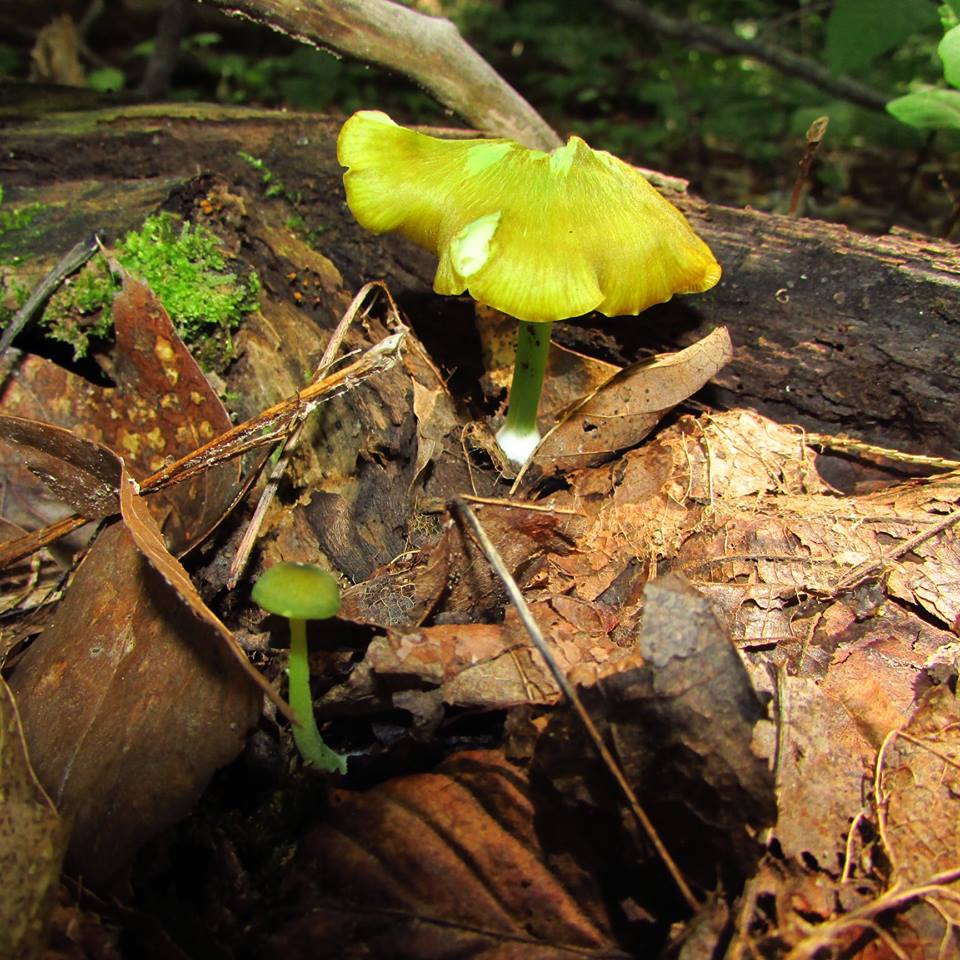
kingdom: Fungi
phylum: Basidiomycota
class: Agaricomycetes
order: Agaricales
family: Entolomataceae
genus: Entoloma
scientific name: Entoloma incanum
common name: Mousepee pinkgill
